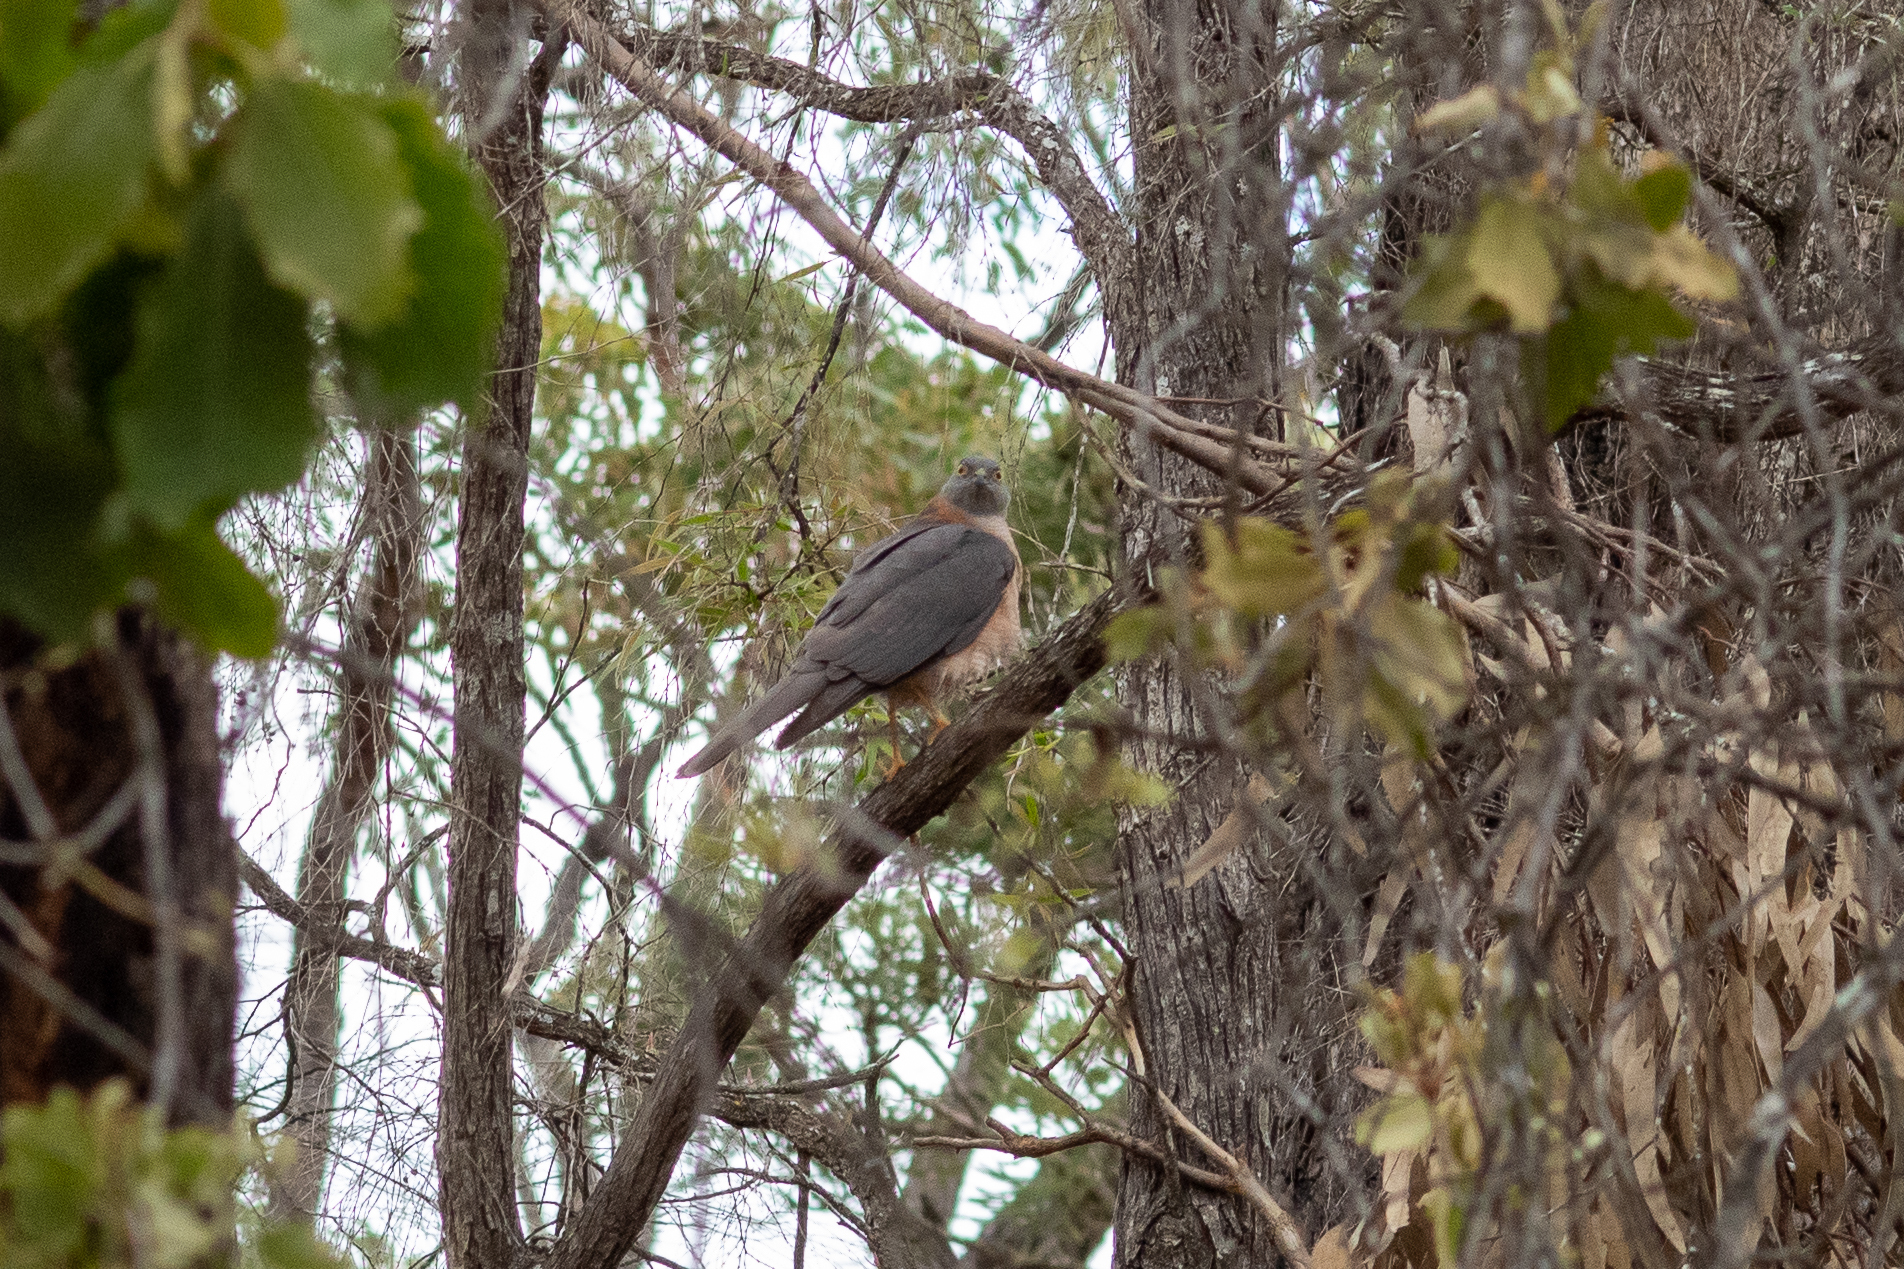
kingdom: Animalia
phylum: Chordata
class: Aves
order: Accipitriformes
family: Accipitridae
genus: Accipiter
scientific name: Accipiter fasciatus
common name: Brown goshawk
